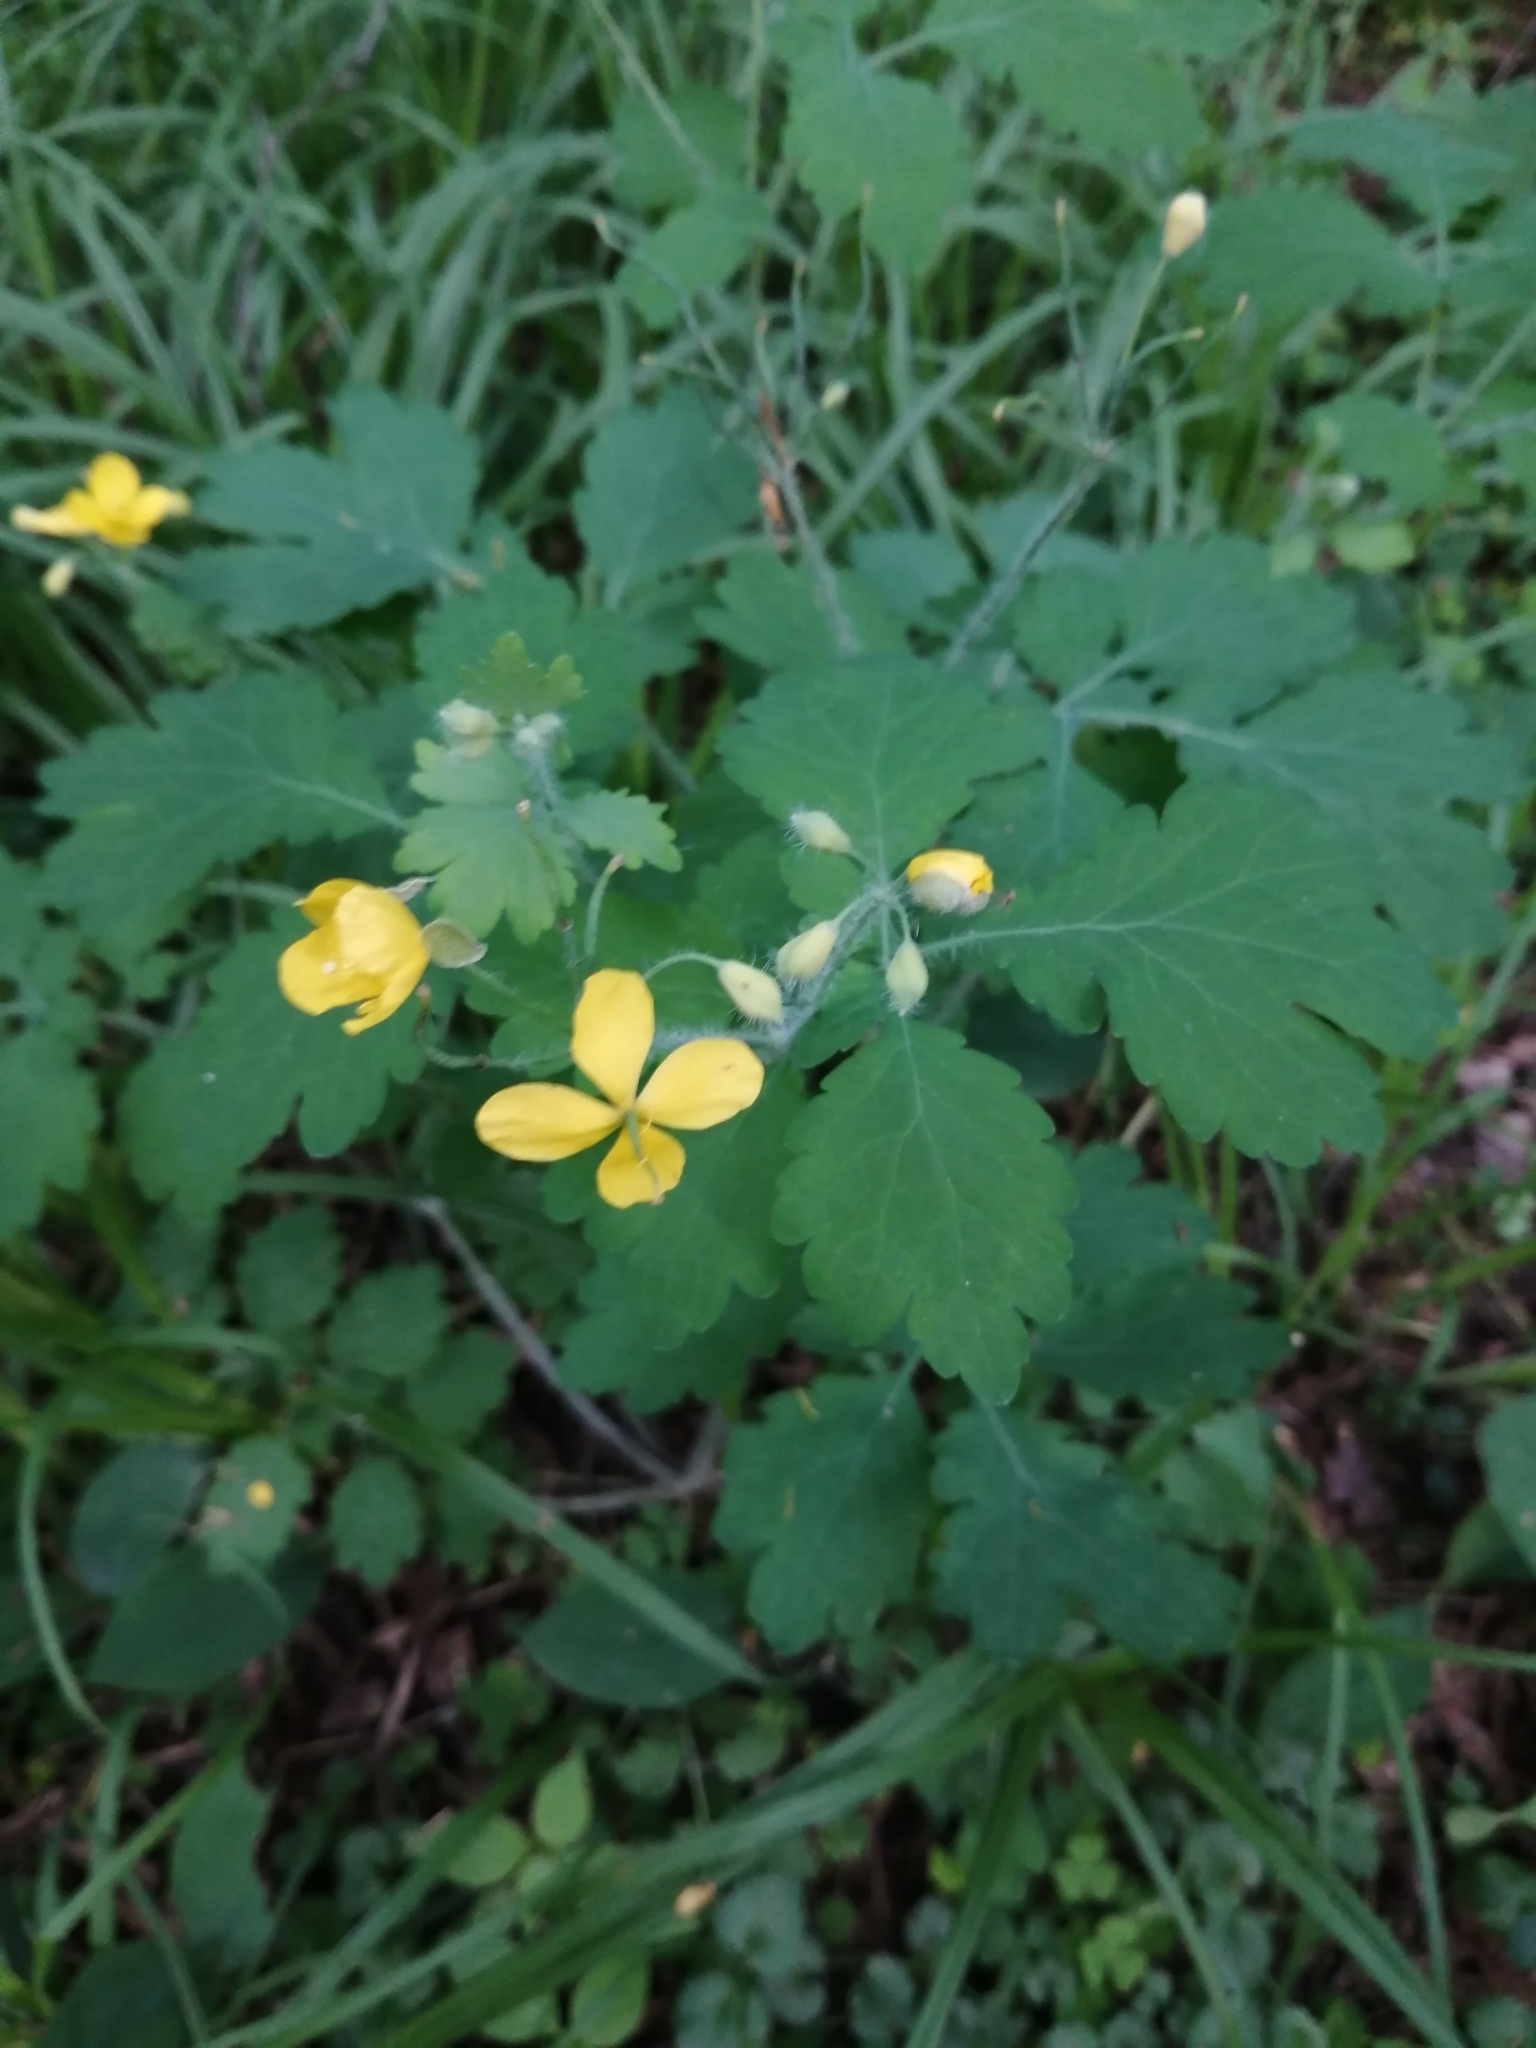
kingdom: Plantae
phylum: Tracheophyta
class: Magnoliopsida
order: Ranunculales
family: Papaveraceae
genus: Chelidonium
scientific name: Chelidonium majus
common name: Greater celandine
